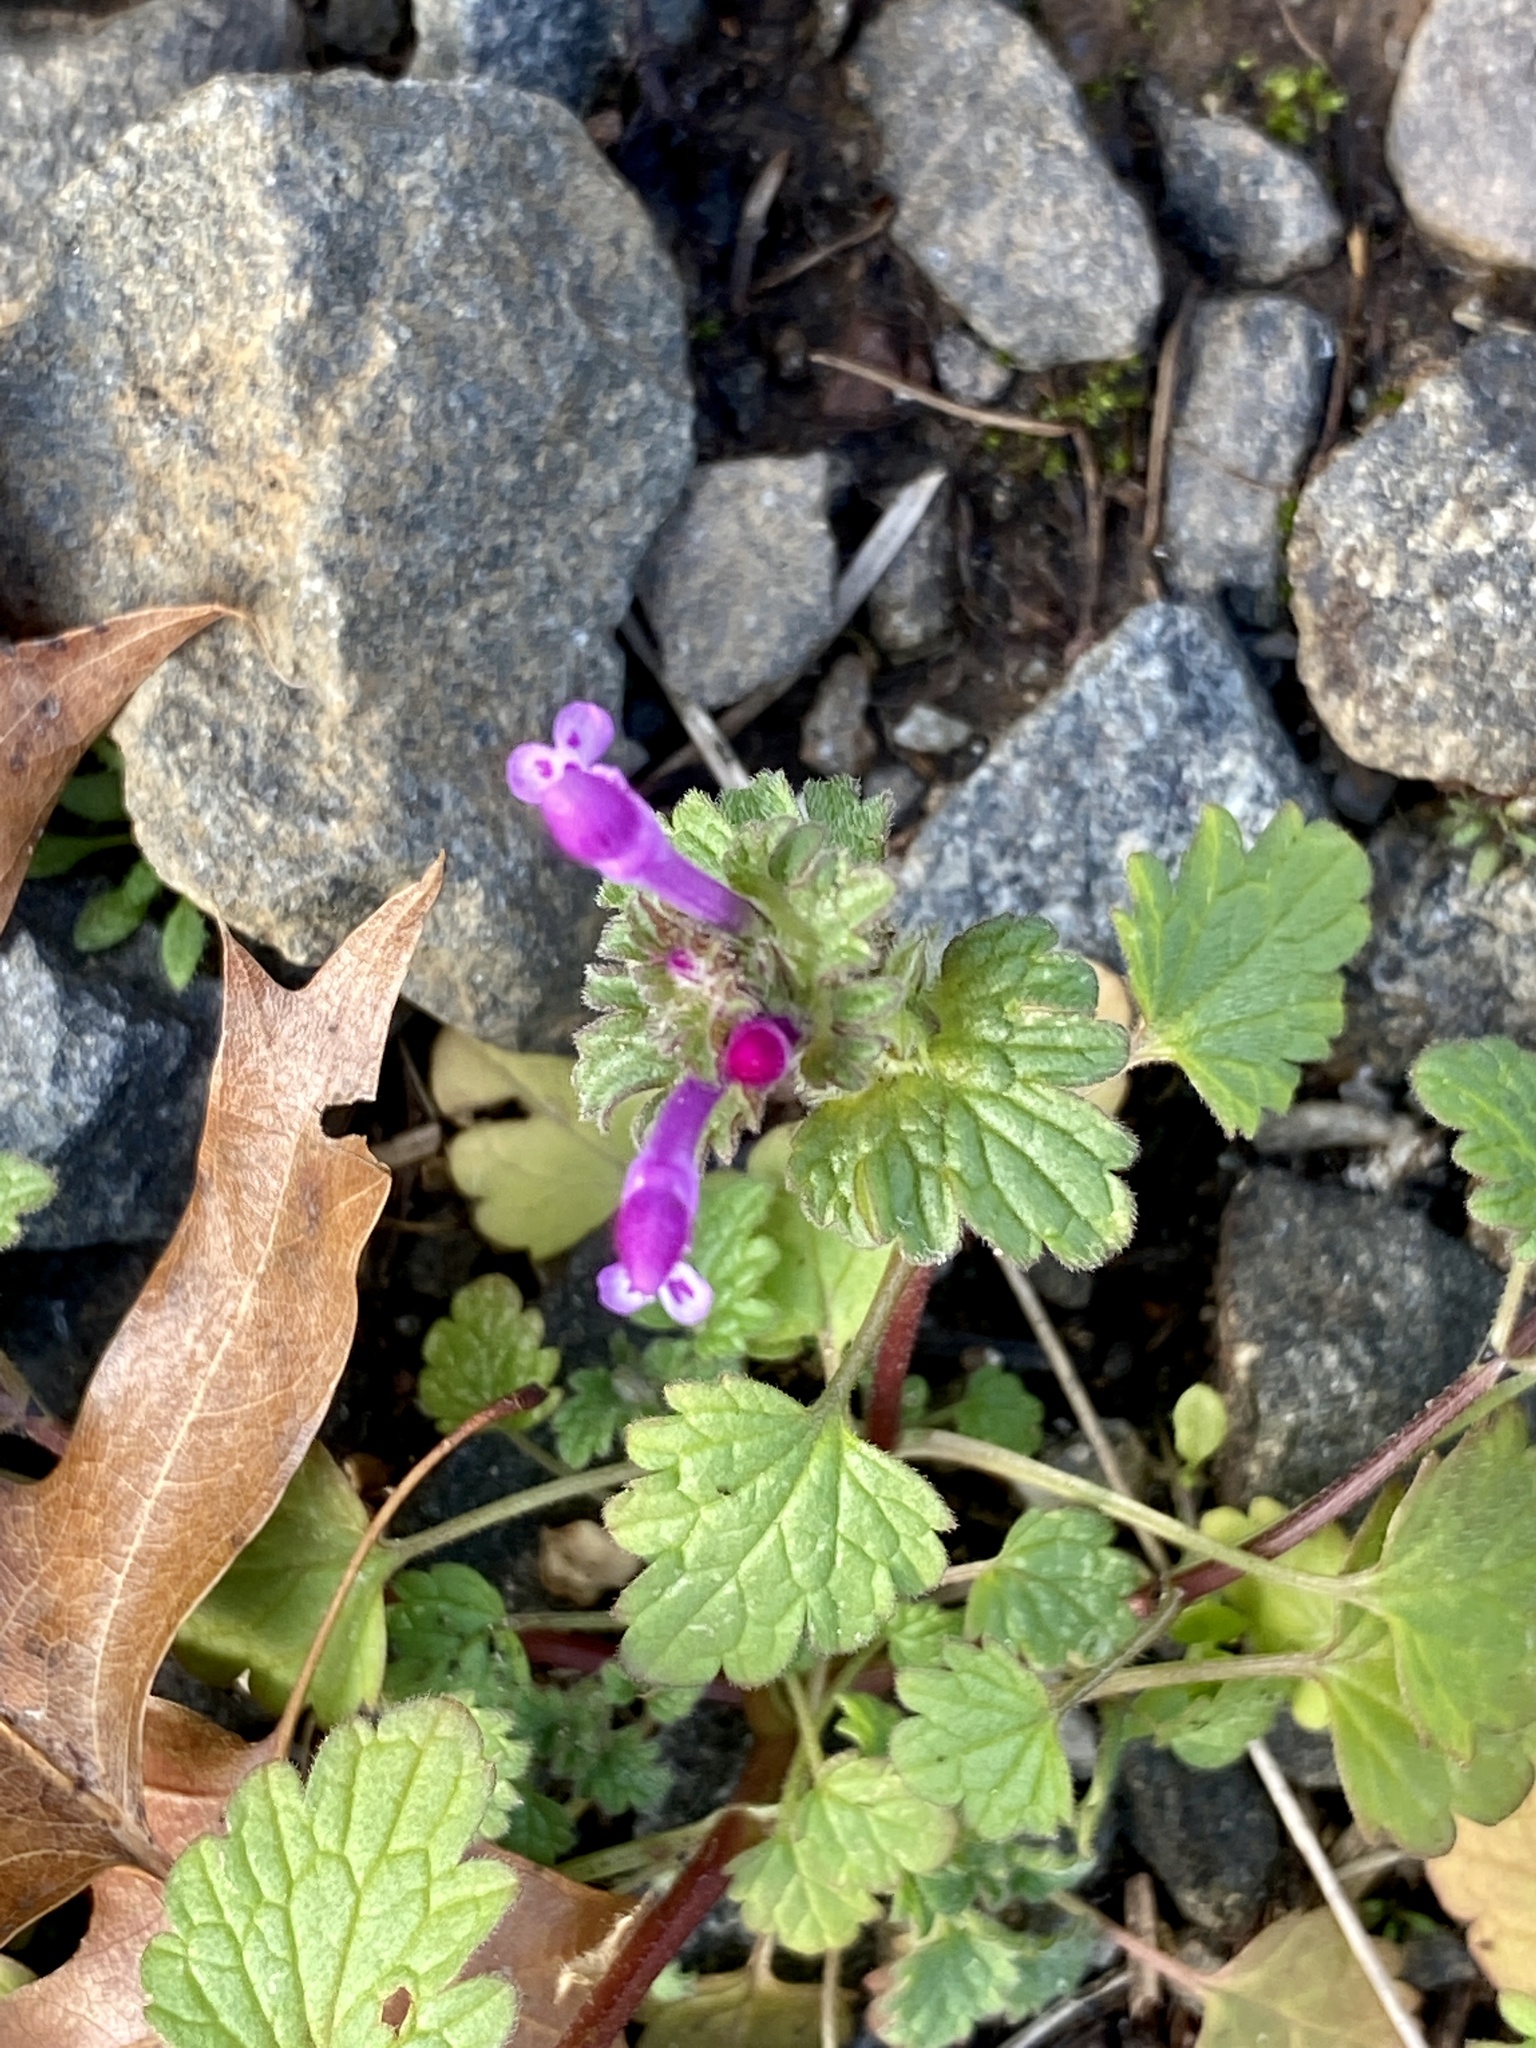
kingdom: Plantae
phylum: Tracheophyta
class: Magnoliopsida
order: Lamiales
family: Lamiaceae
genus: Lamium
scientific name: Lamium amplexicaule
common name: Henbit dead-nettle
